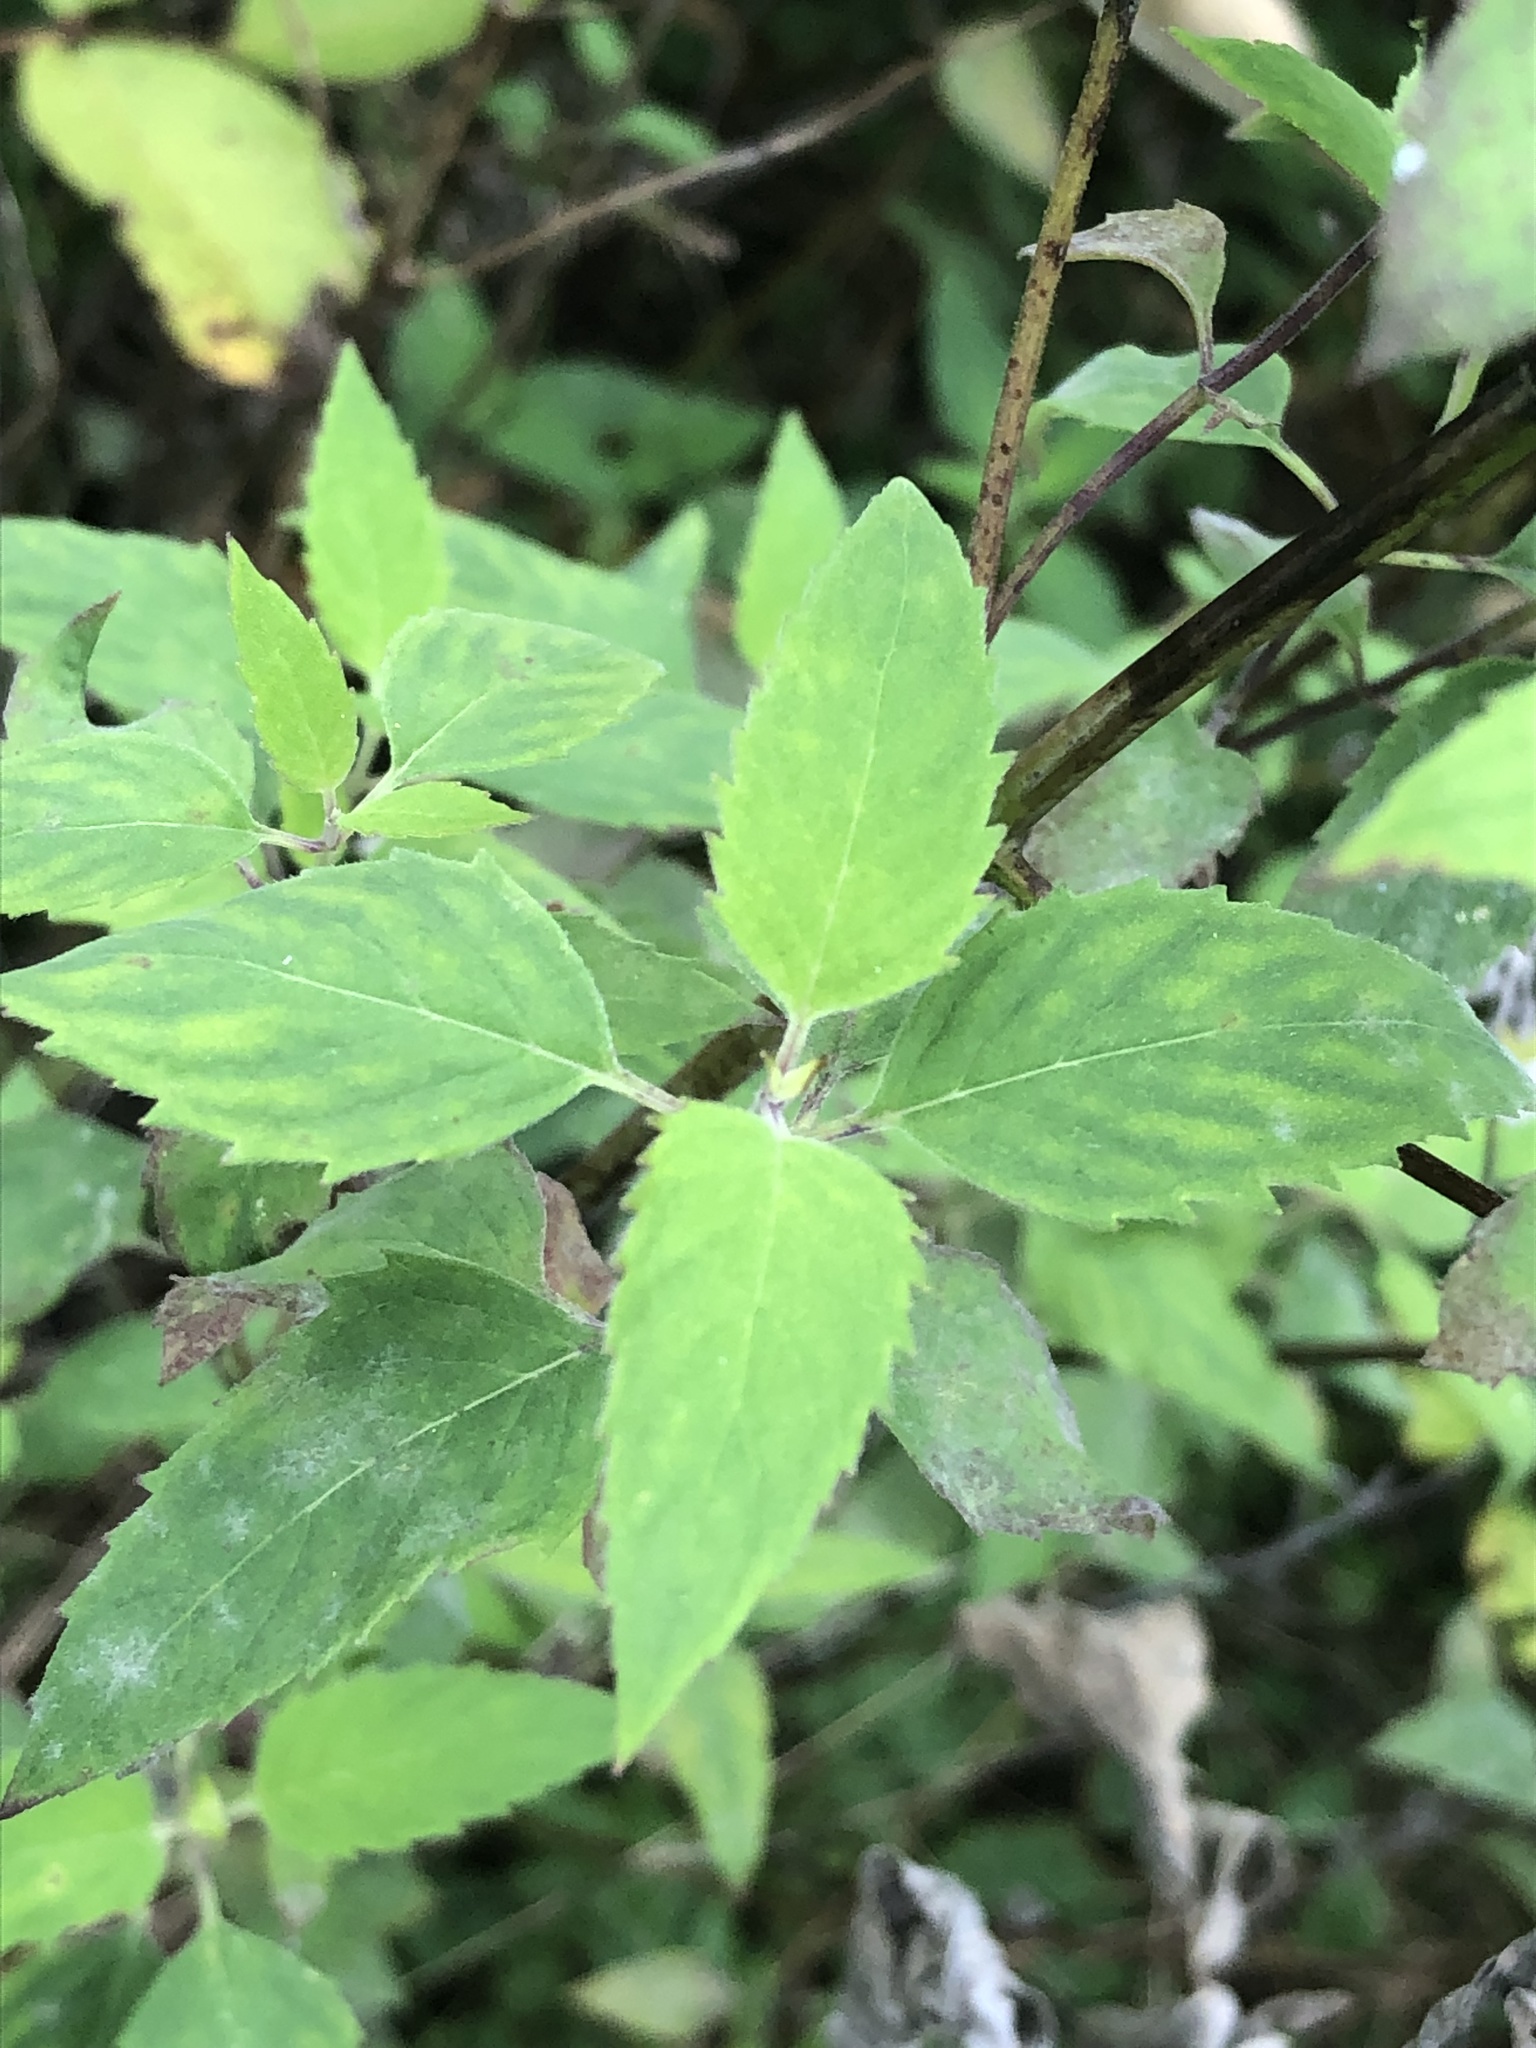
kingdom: Plantae
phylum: Tracheophyta
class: Magnoliopsida
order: Lamiales
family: Lamiaceae
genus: Monarda
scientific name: Monarda fistulosa
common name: Purple beebalm
